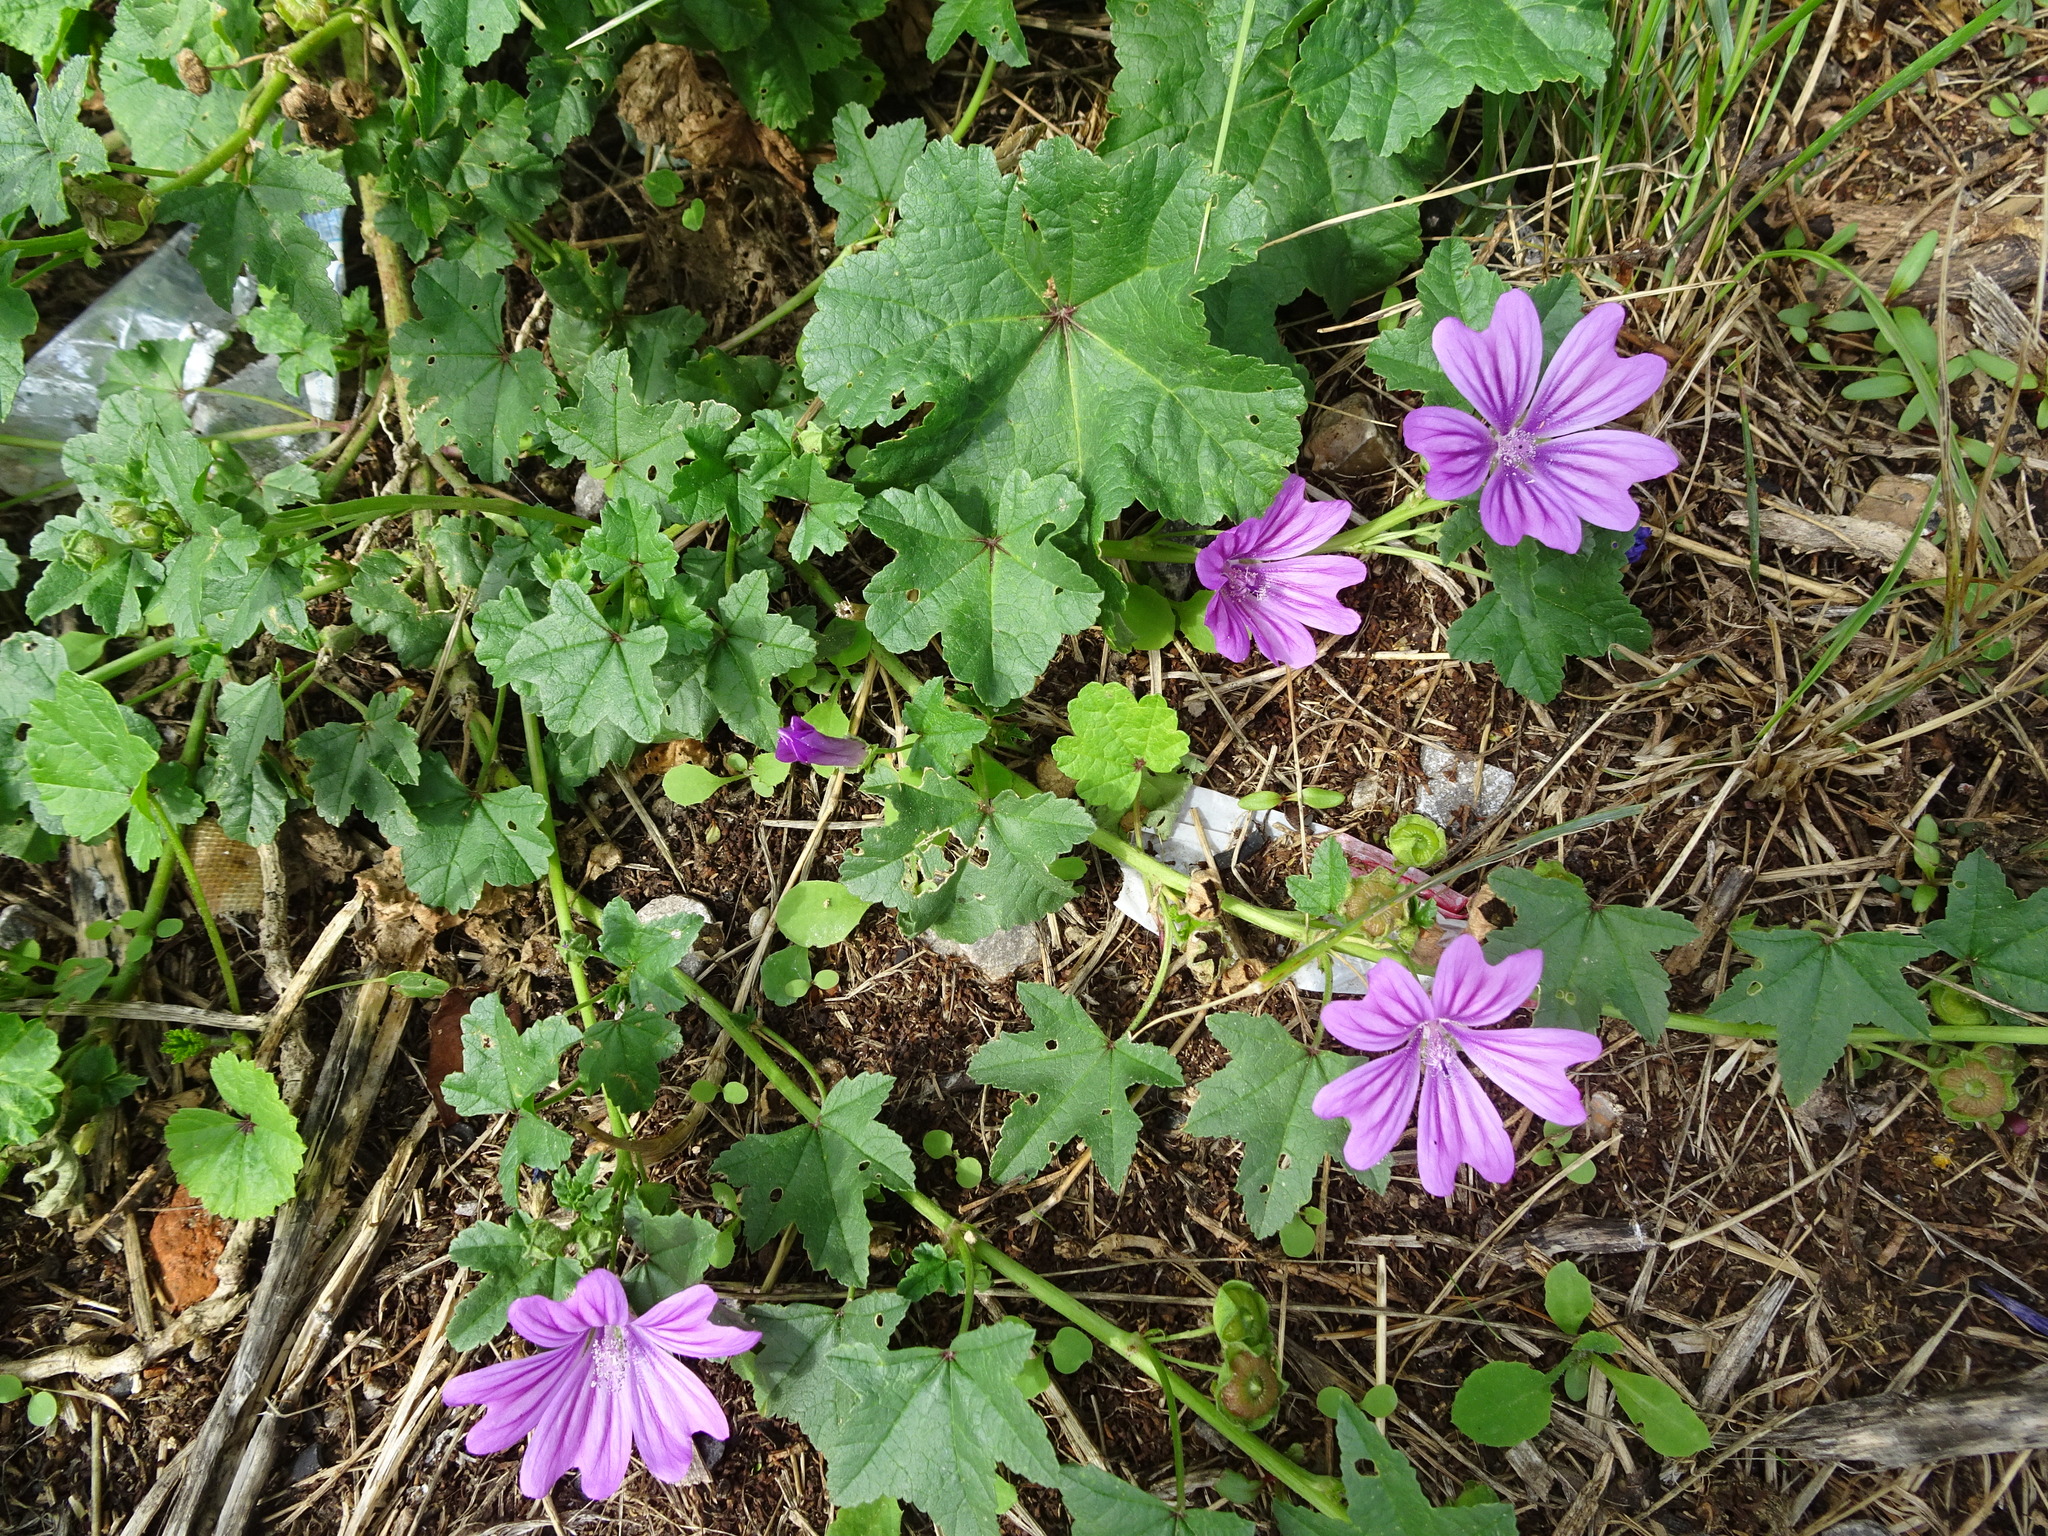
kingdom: Plantae
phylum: Tracheophyta
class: Magnoliopsida
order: Malvales
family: Malvaceae
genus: Malva
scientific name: Malva sylvestris
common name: Common mallow
